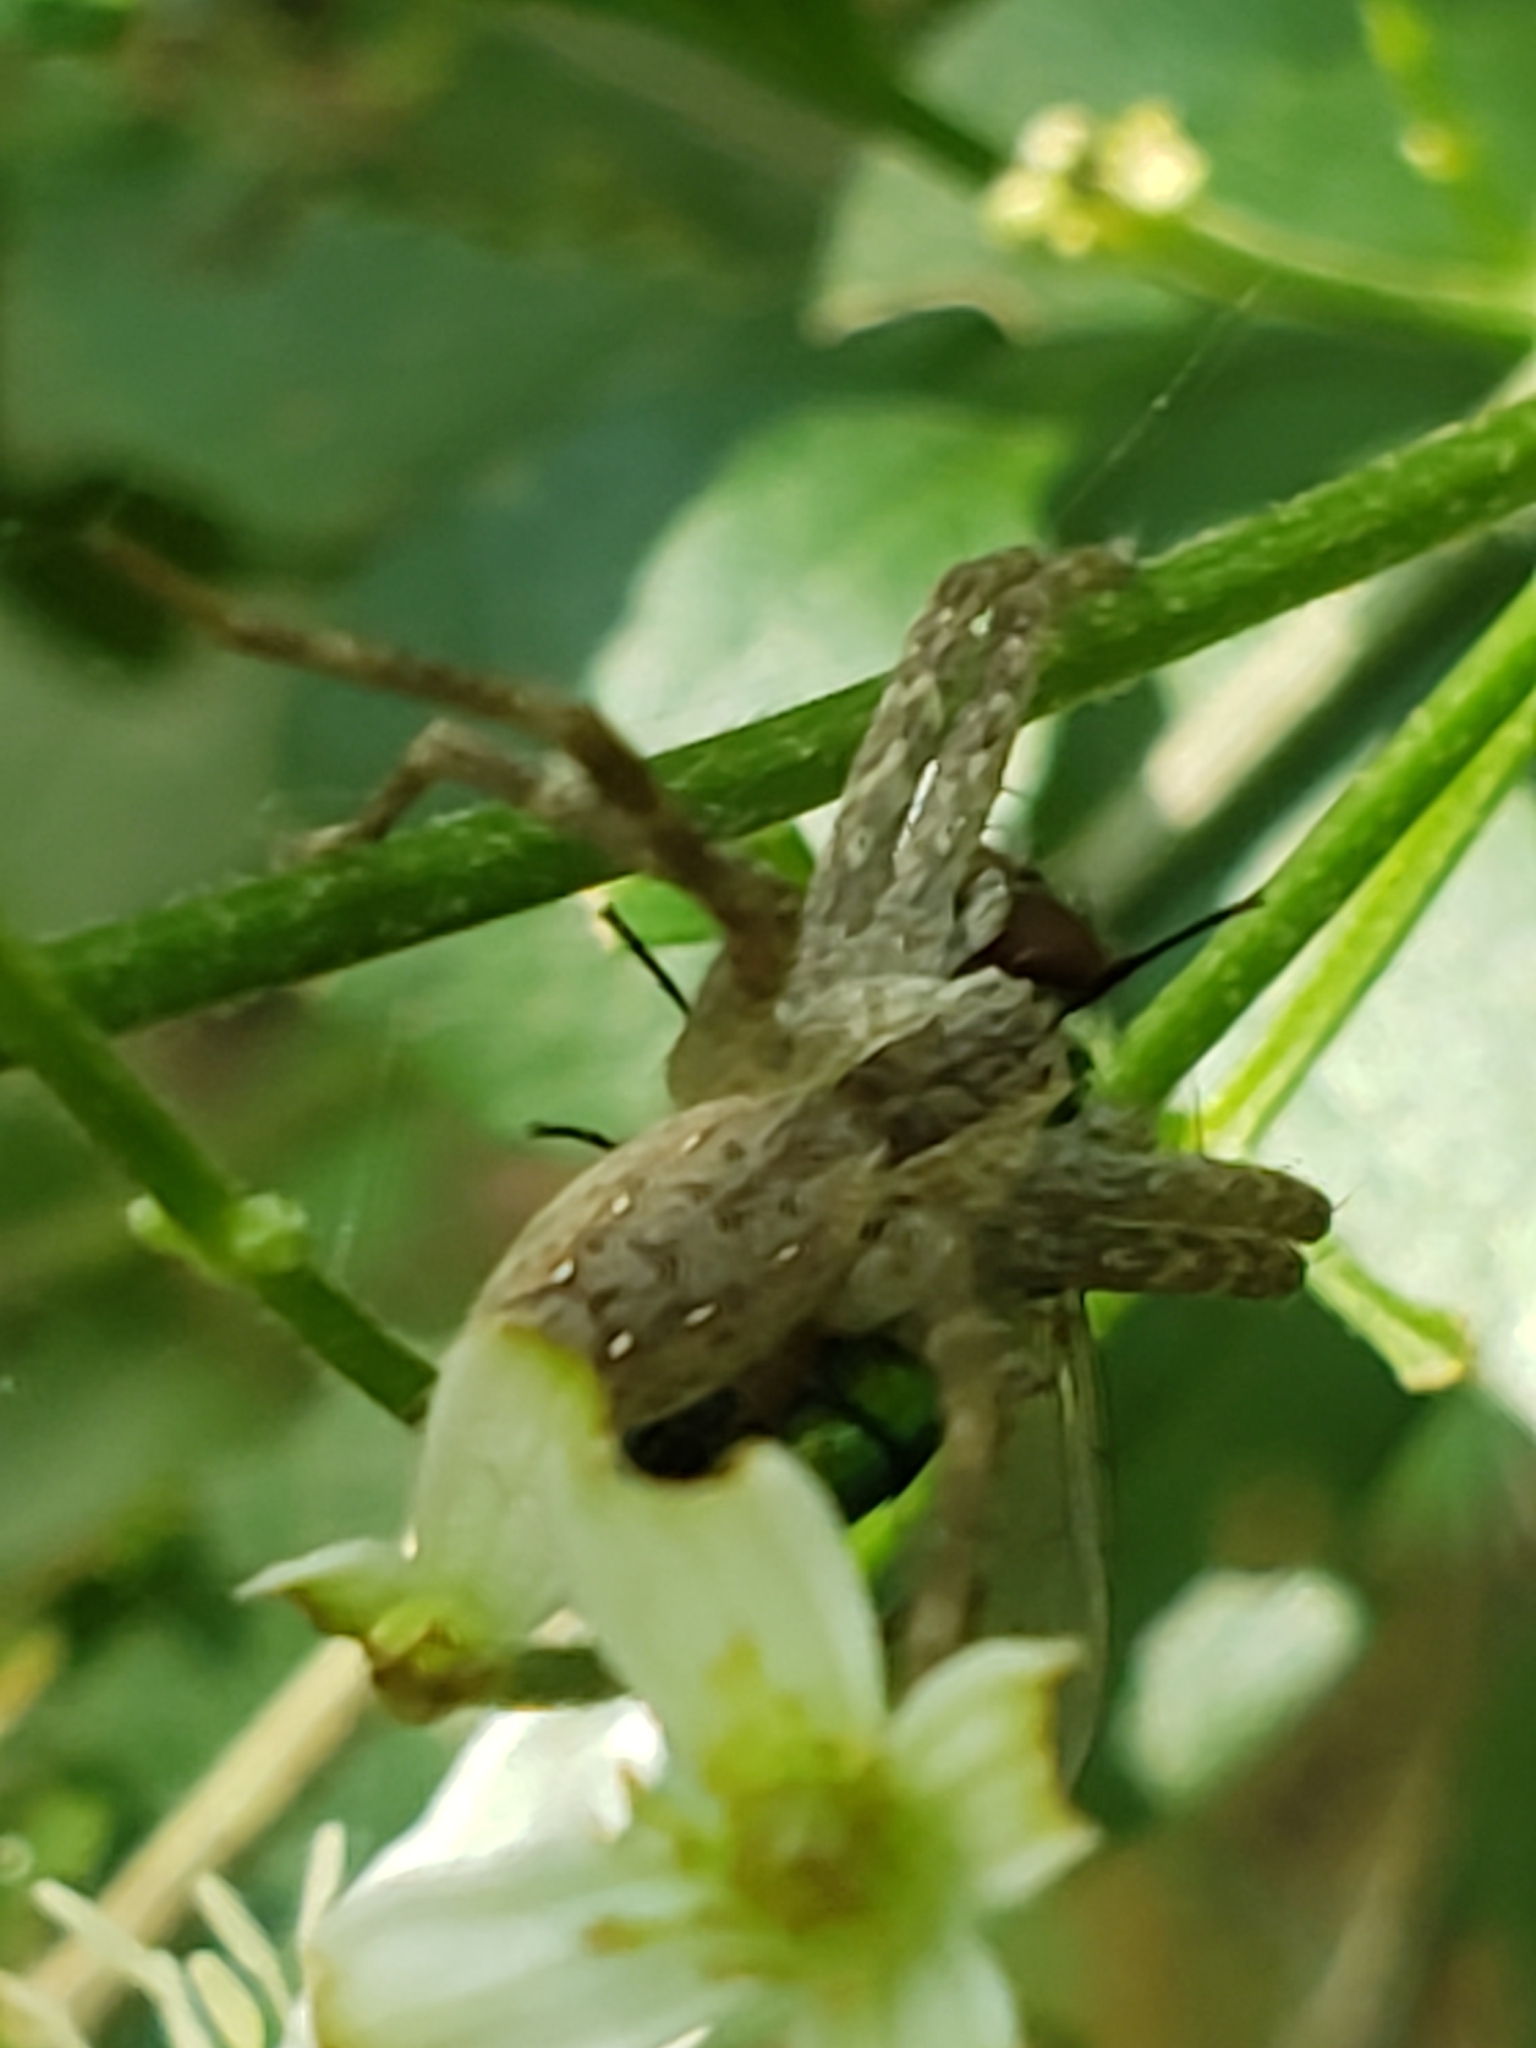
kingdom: Animalia
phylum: Arthropoda
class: Arachnida
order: Araneae
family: Pisauridae
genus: Pisaurina
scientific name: Pisaurina mira
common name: American nursery web spider
